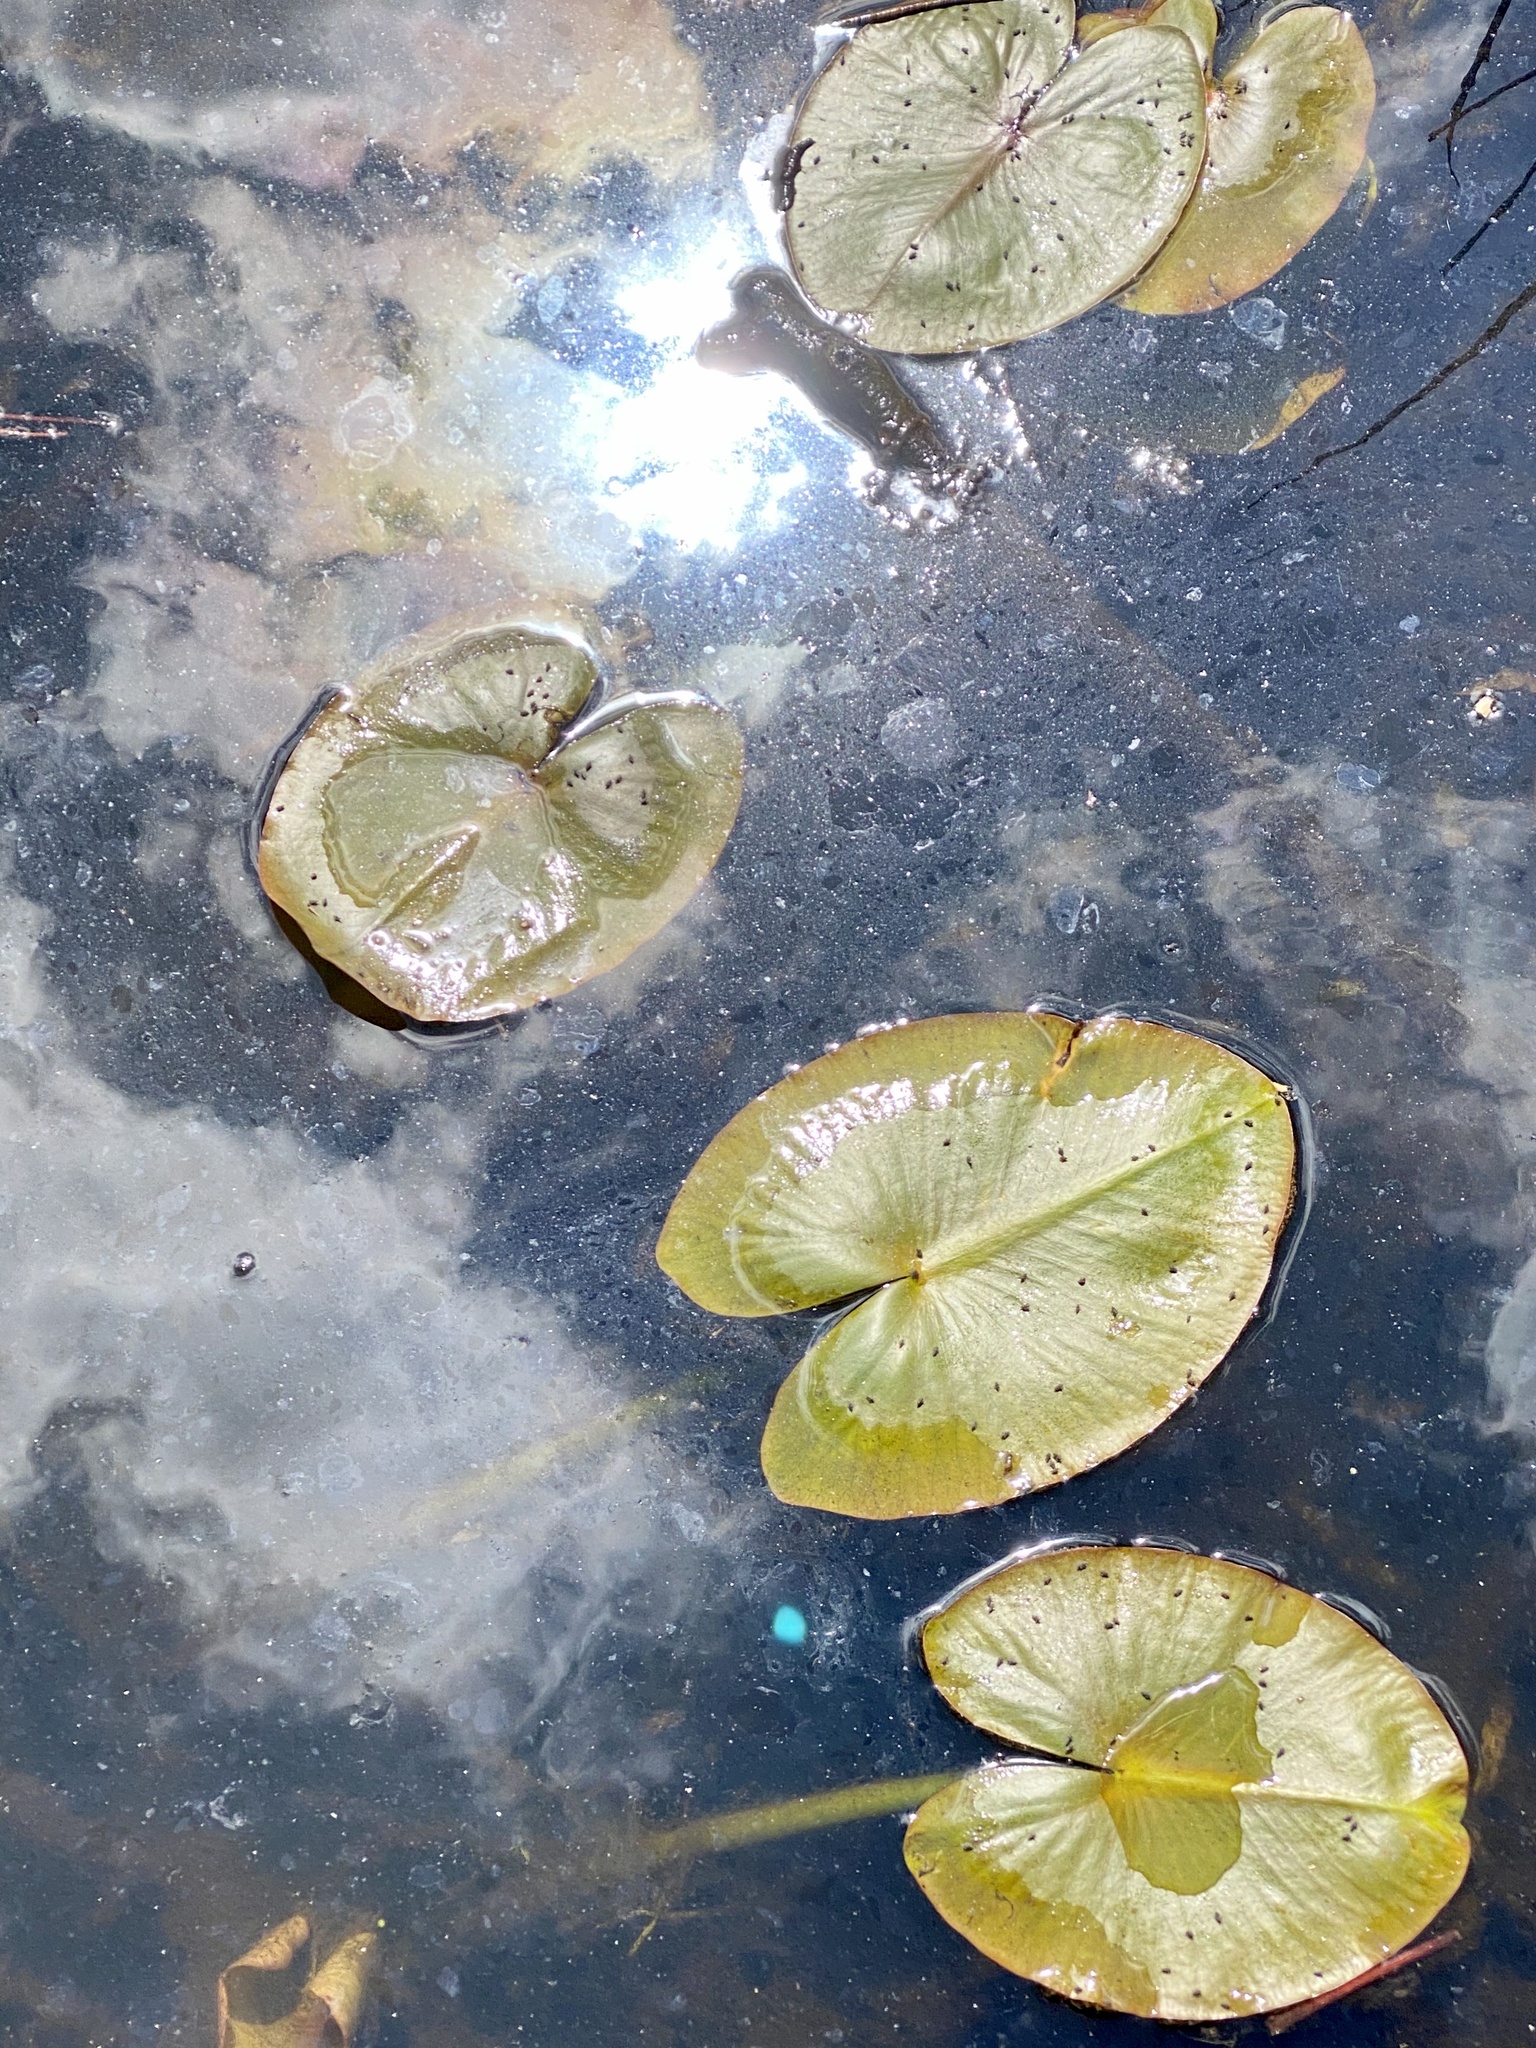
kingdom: Plantae
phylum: Tracheophyta
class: Magnoliopsida
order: Nymphaeales
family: Nymphaeaceae
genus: Nuphar
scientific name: Nuphar advena
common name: Spatter-dock
